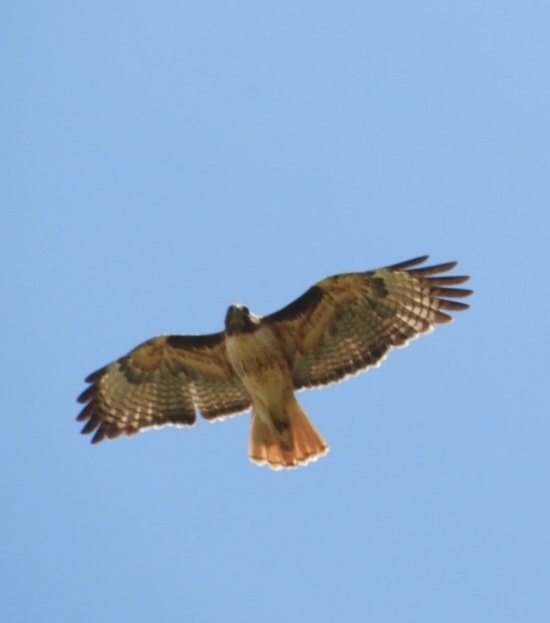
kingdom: Animalia
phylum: Chordata
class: Aves
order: Accipitriformes
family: Accipitridae
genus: Buteo
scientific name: Buteo jamaicensis
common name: Red-tailed hawk
